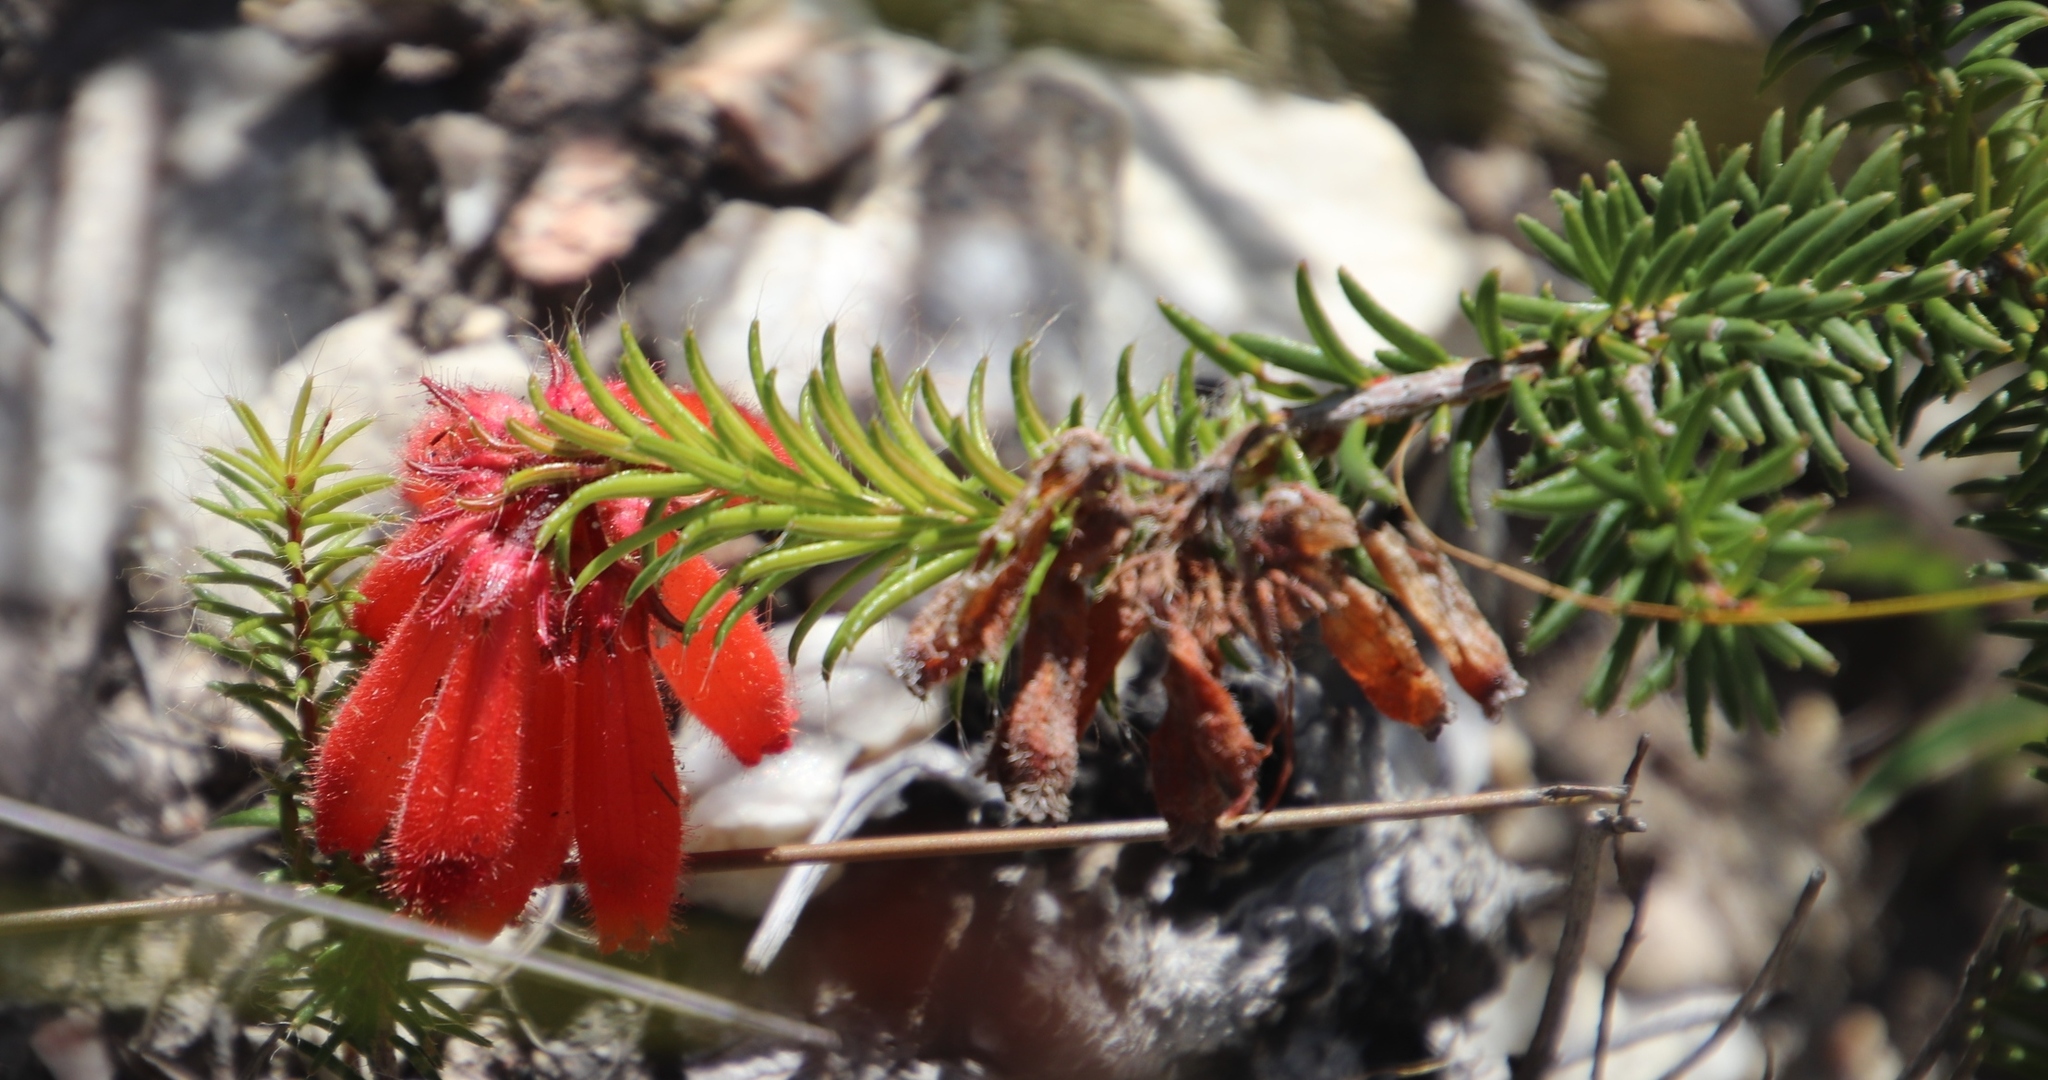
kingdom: Plantae
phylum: Tracheophyta
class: Magnoliopsida
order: Ericales
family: Ericaceae
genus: Erica
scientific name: Erica cerinthoides
